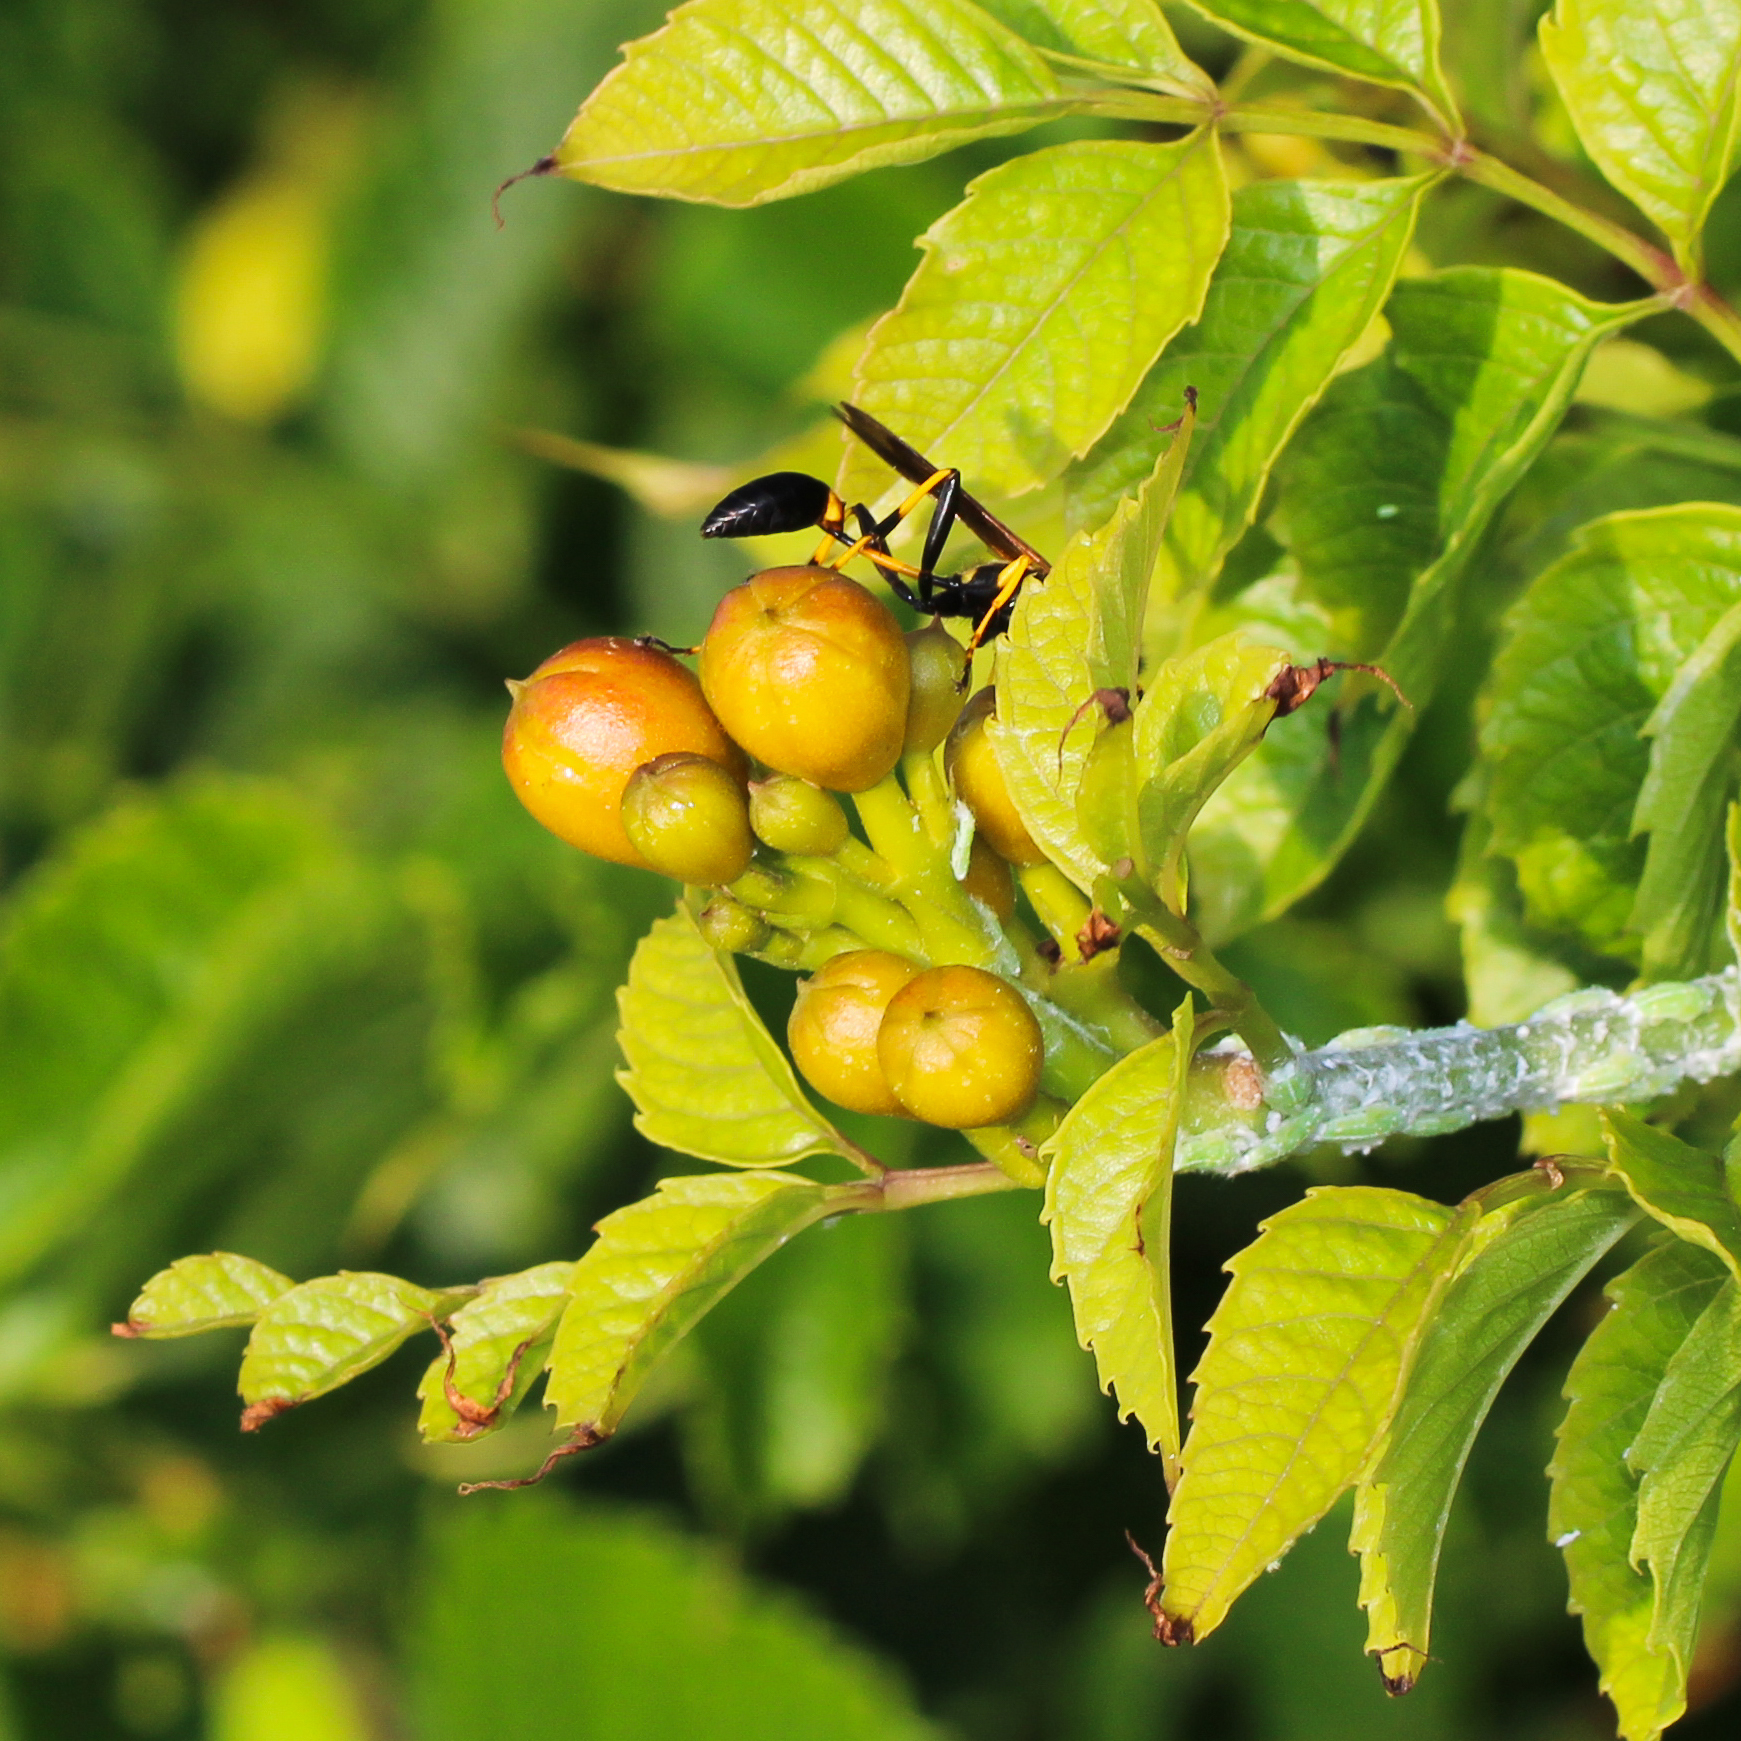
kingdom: Animalia
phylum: Arthropoda
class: Insecta
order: Hymenoptera
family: Sphecidae
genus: Sceliphron
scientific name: Sceliphron caementarium
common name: Mud dauber
